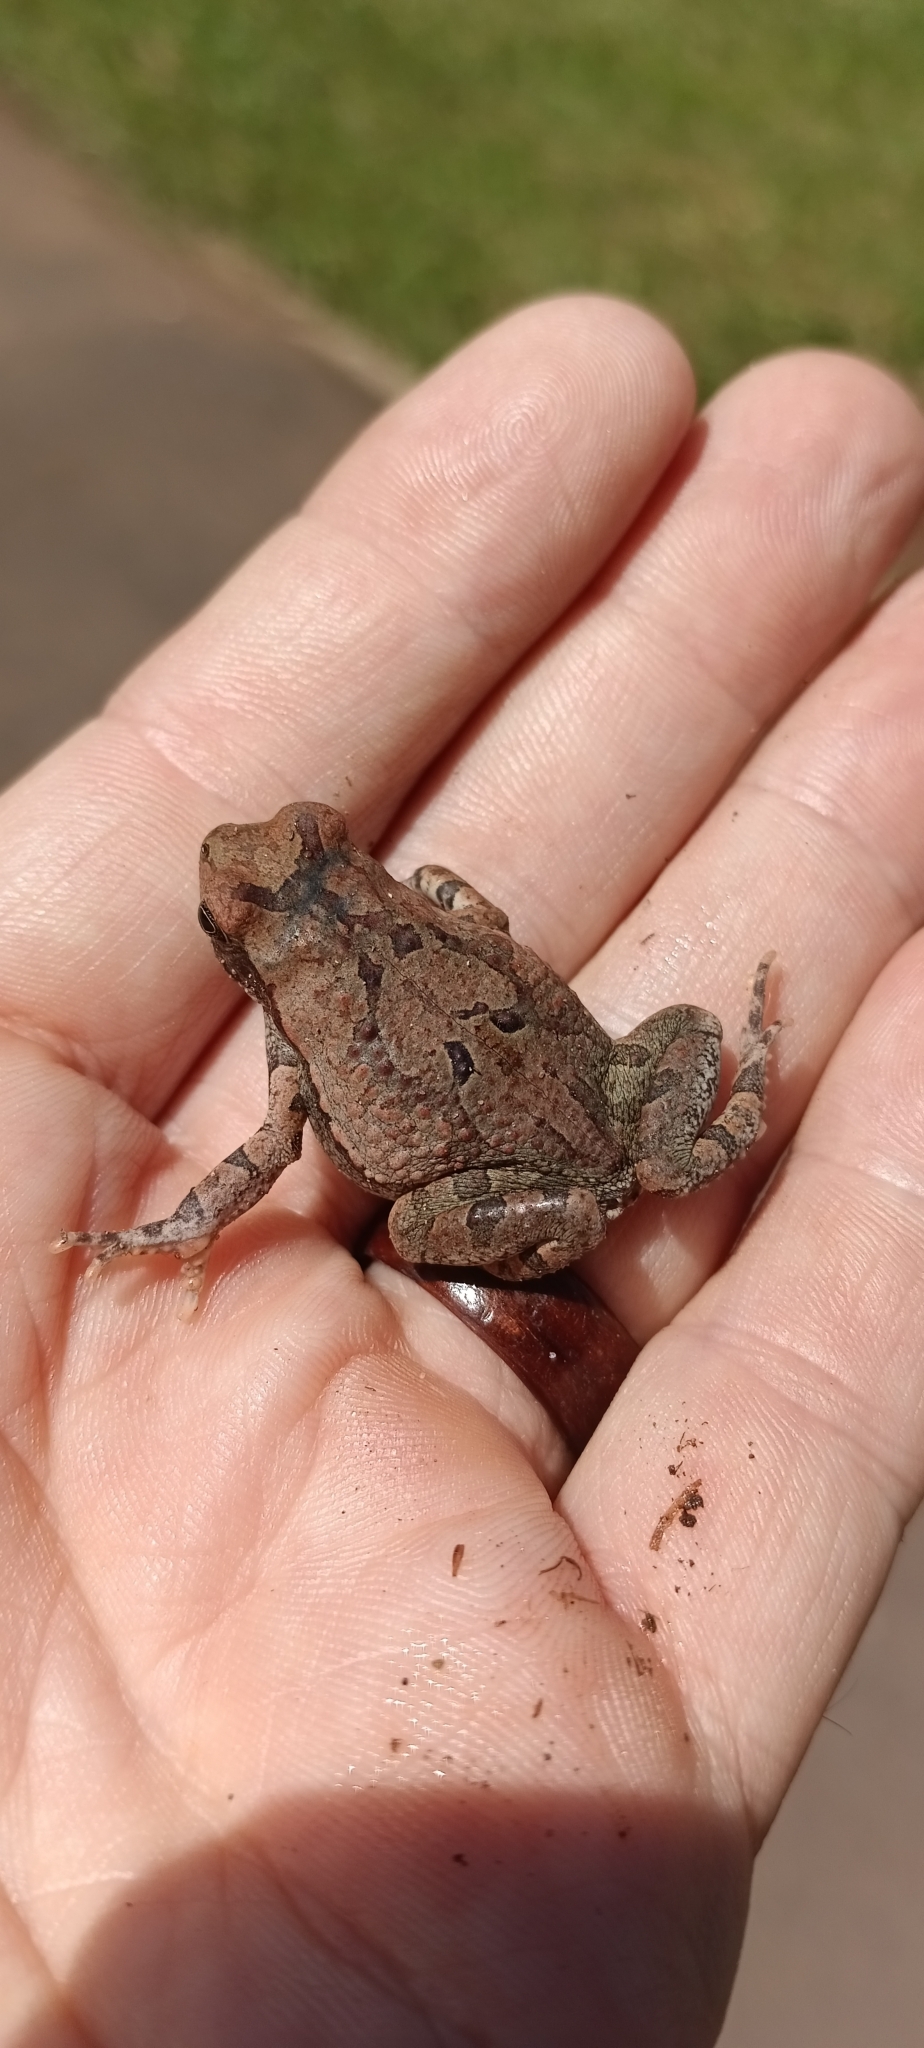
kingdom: Animalia
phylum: Chordata
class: Amphibia
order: Anura
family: Bufonidae
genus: Schismaderma
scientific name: Schismaderma carens
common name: African split-skin toad
